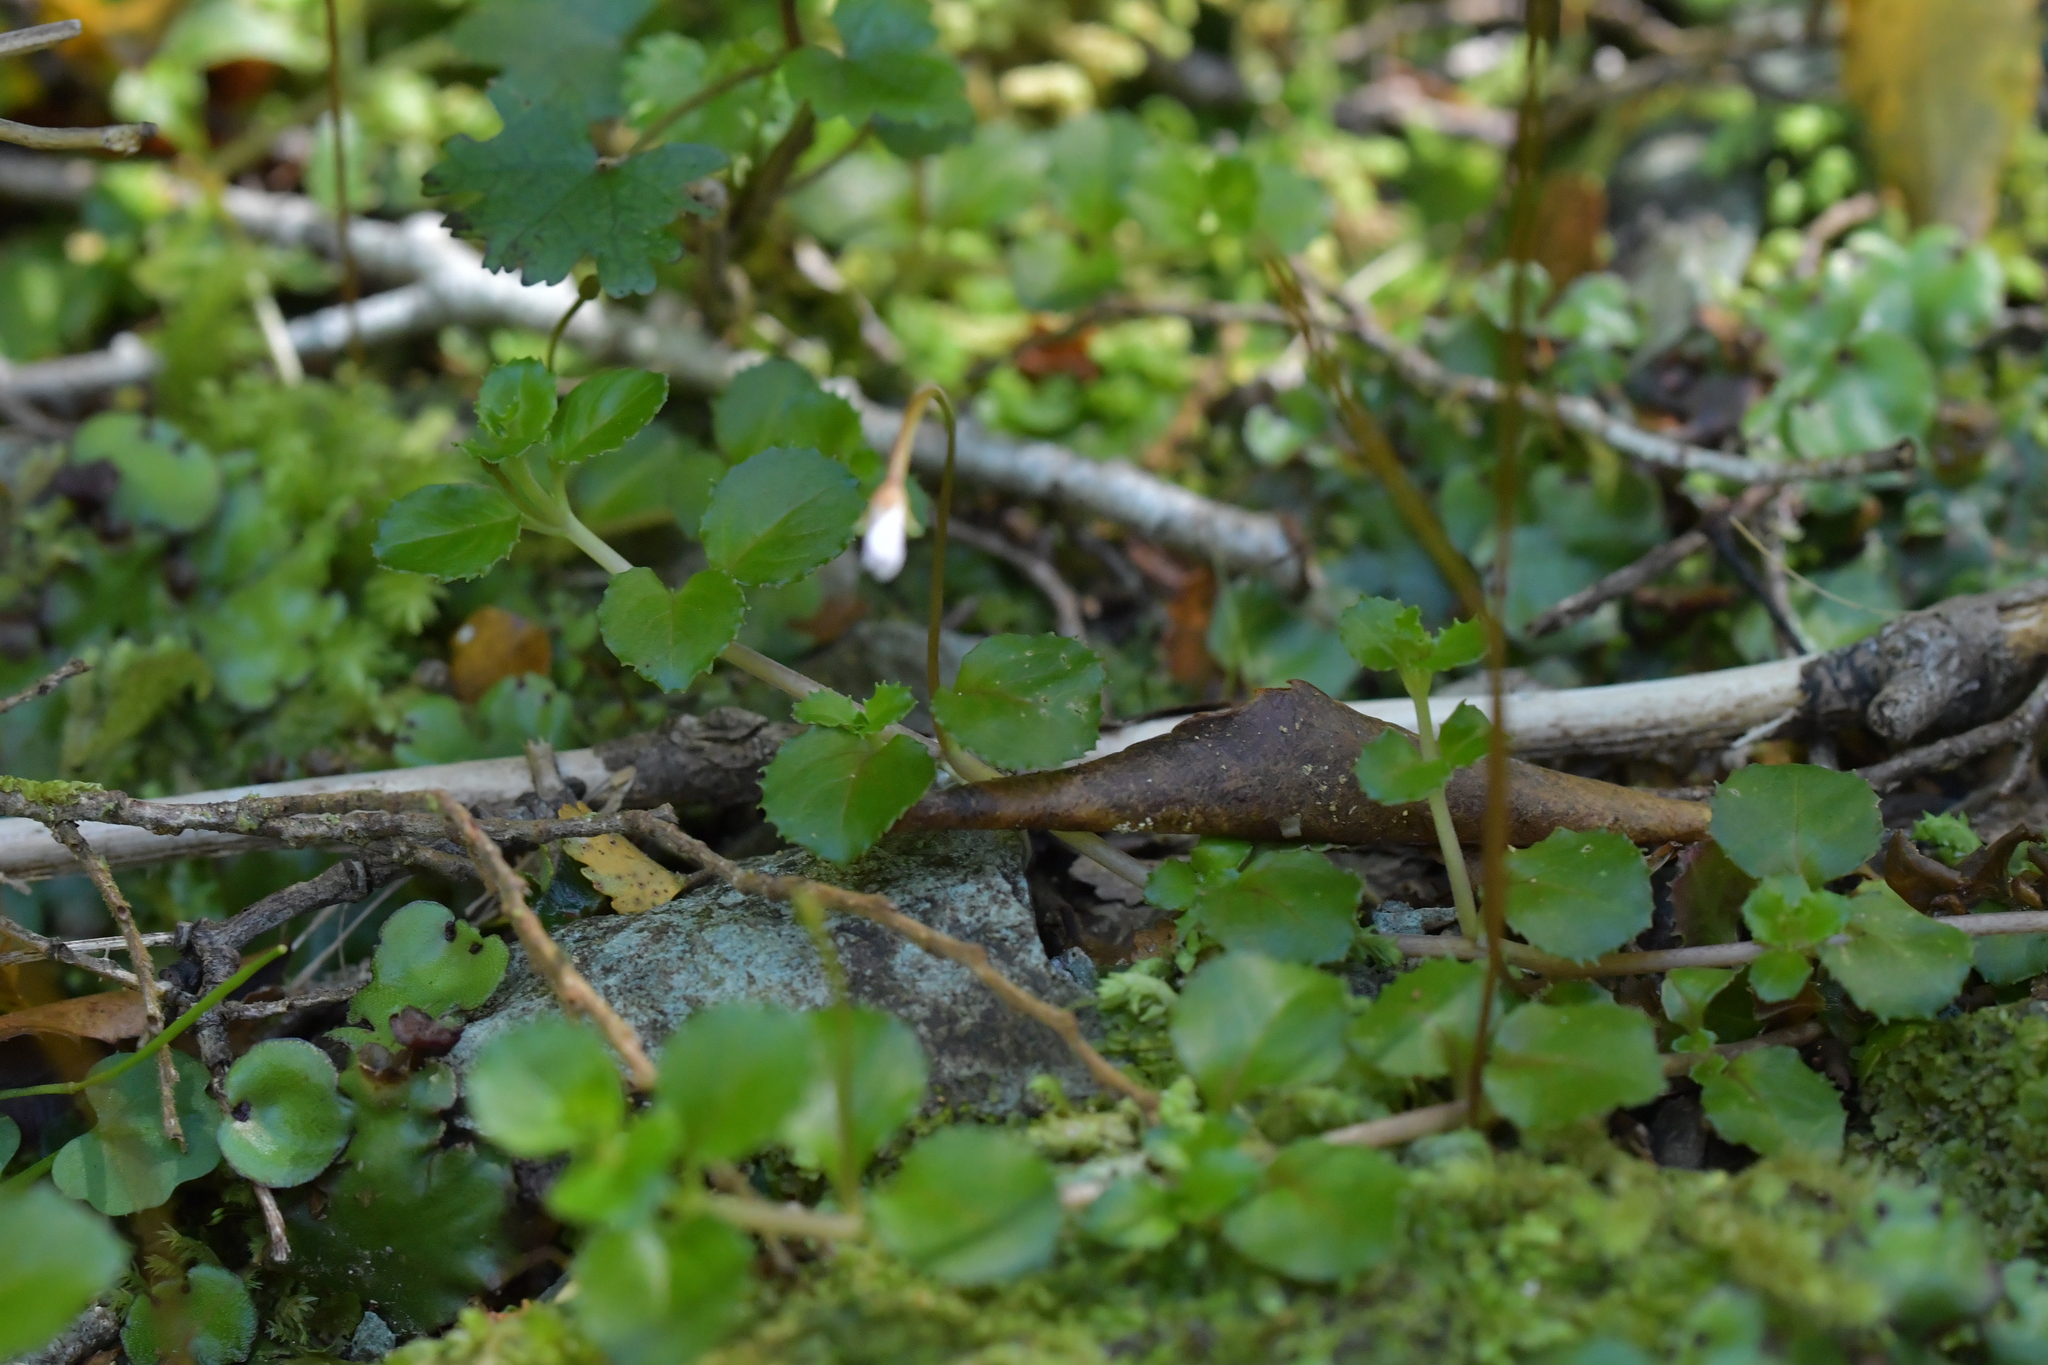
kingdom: Plantae
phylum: Tracheophyta
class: Magnoliopsida
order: Myrtales
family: Onagraceae
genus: Epilobium
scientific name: Epilobium pedunculare
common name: Rockery willowherb
